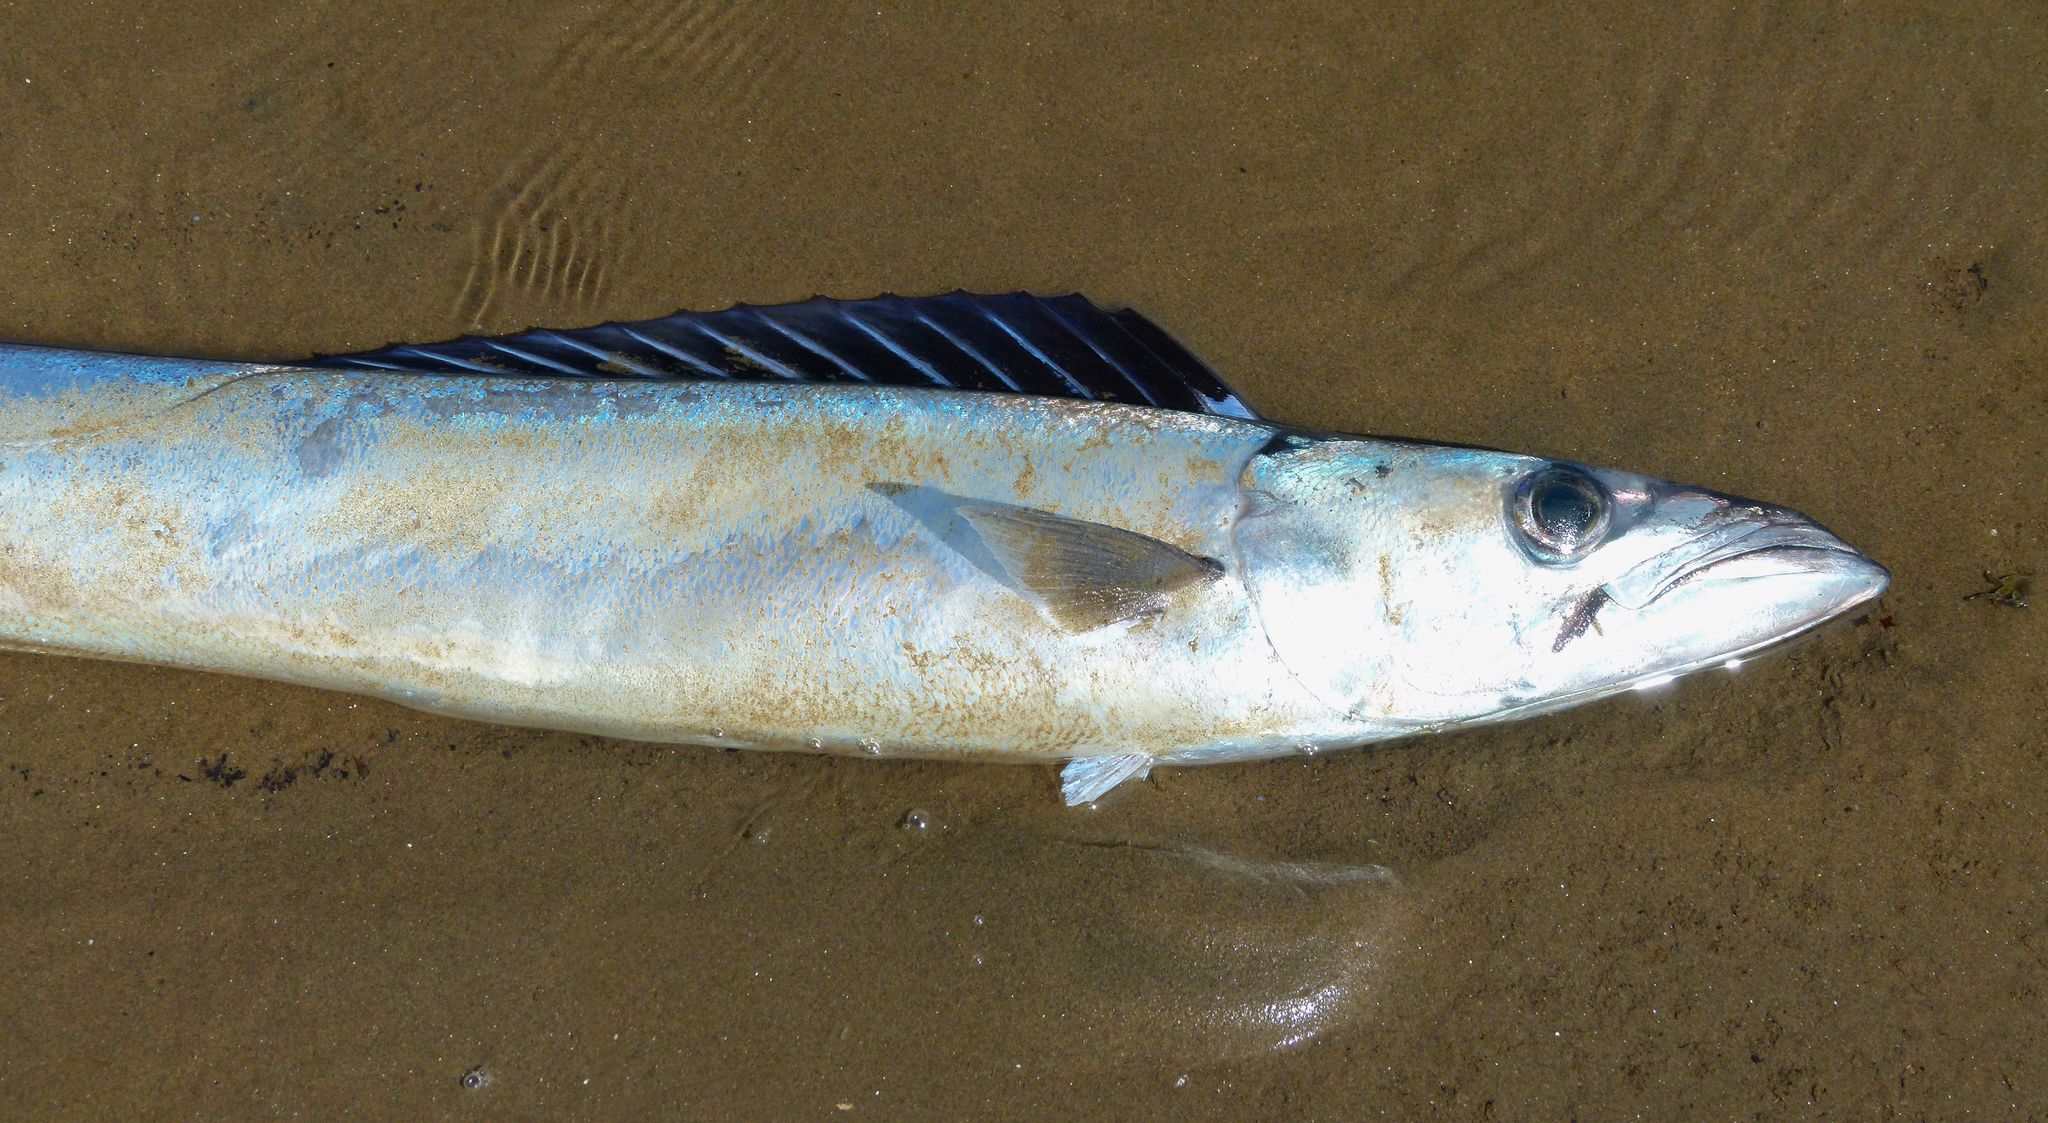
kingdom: Animalia
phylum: Chordata
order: Perciformes
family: Gempylidae
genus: Thyrsites
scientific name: Thyrsites atun
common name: Snoek
